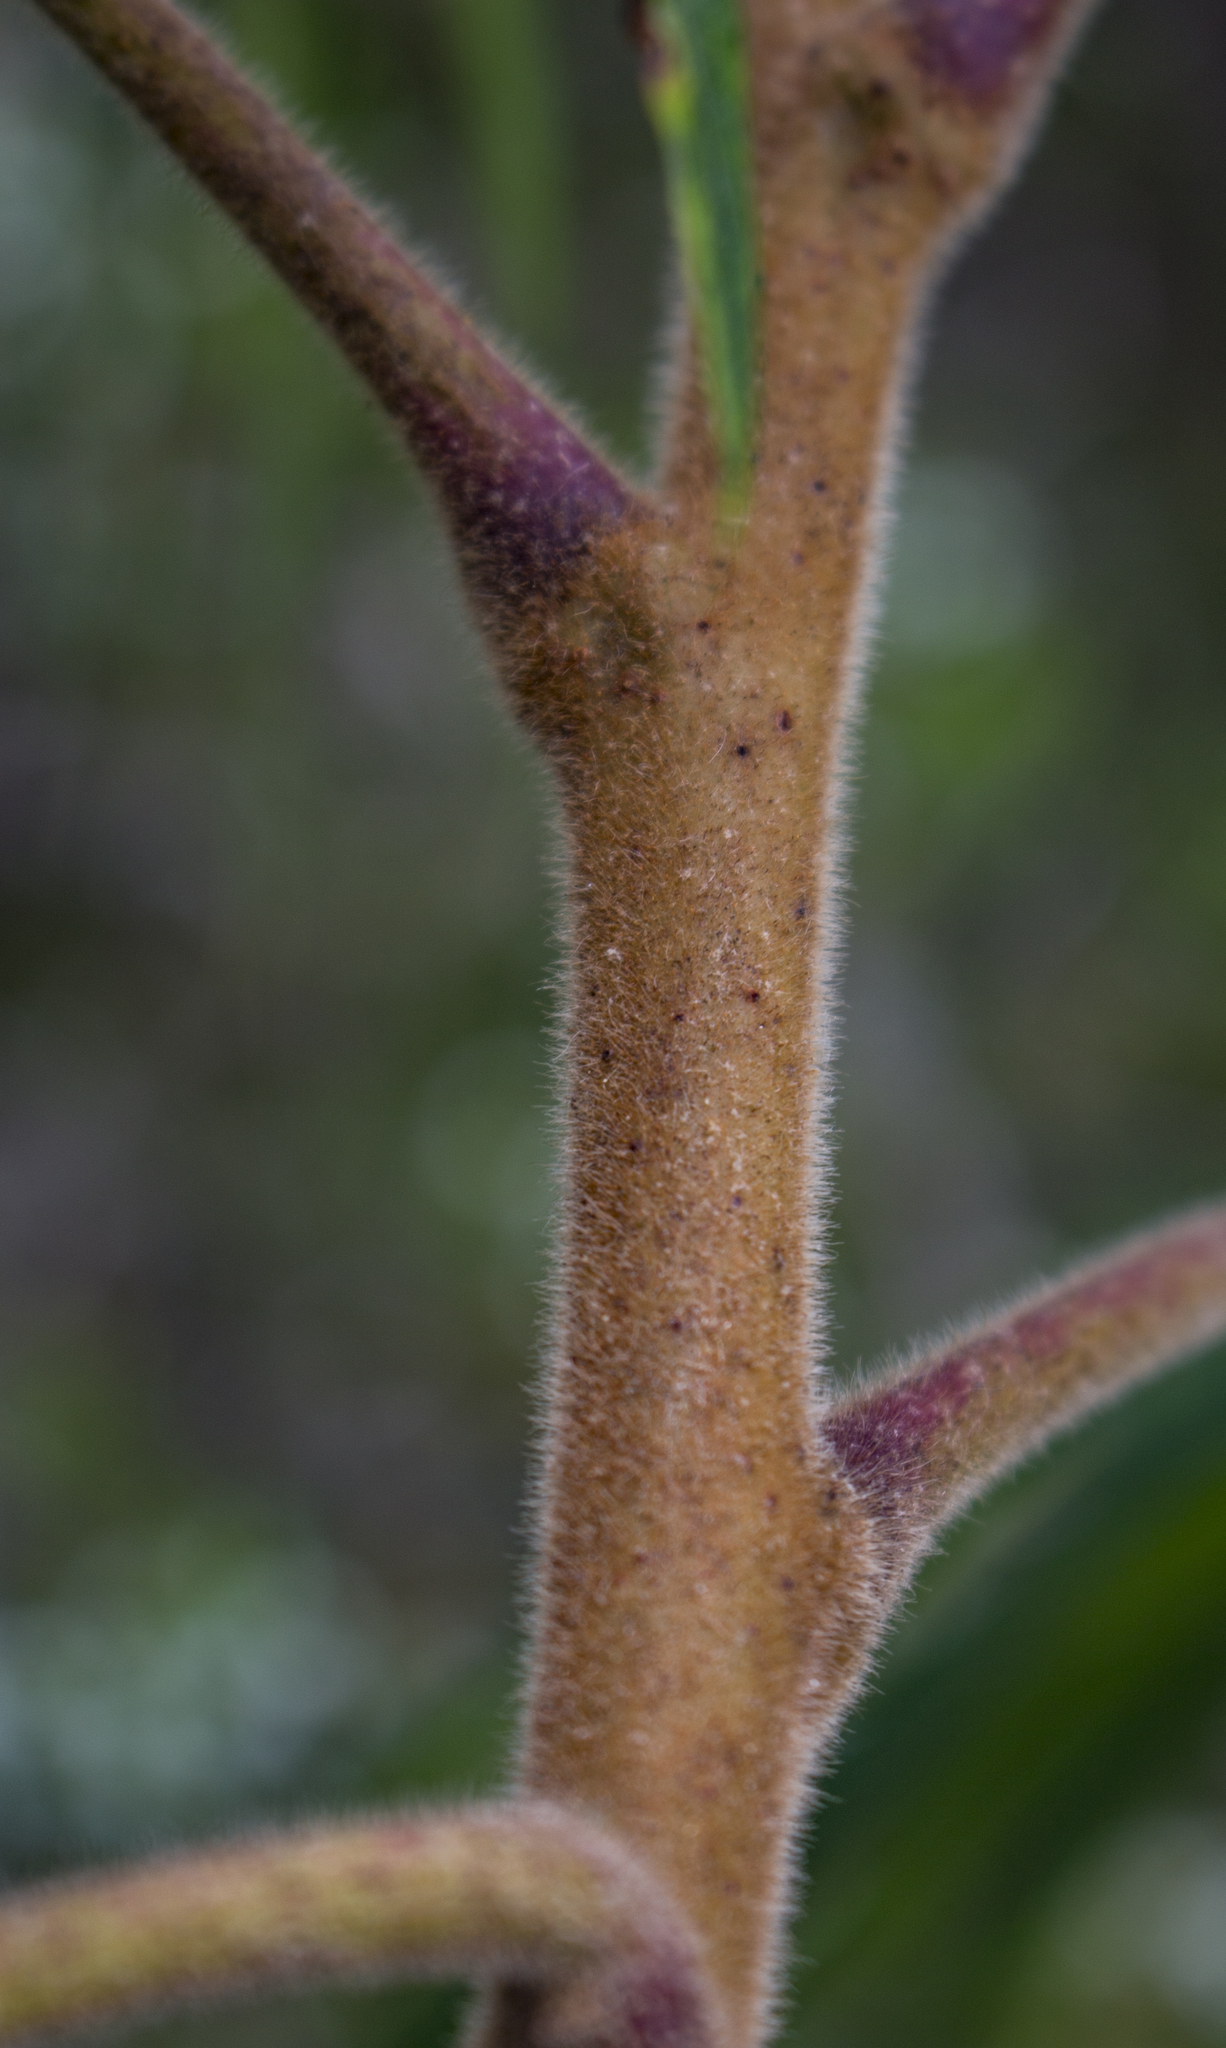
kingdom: Plantae
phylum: Tracheophyta
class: Magnoliopsida
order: Sapindales
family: Anacardiaceae
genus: Rhus
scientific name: Rhus typhina
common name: Staghorn sumac
